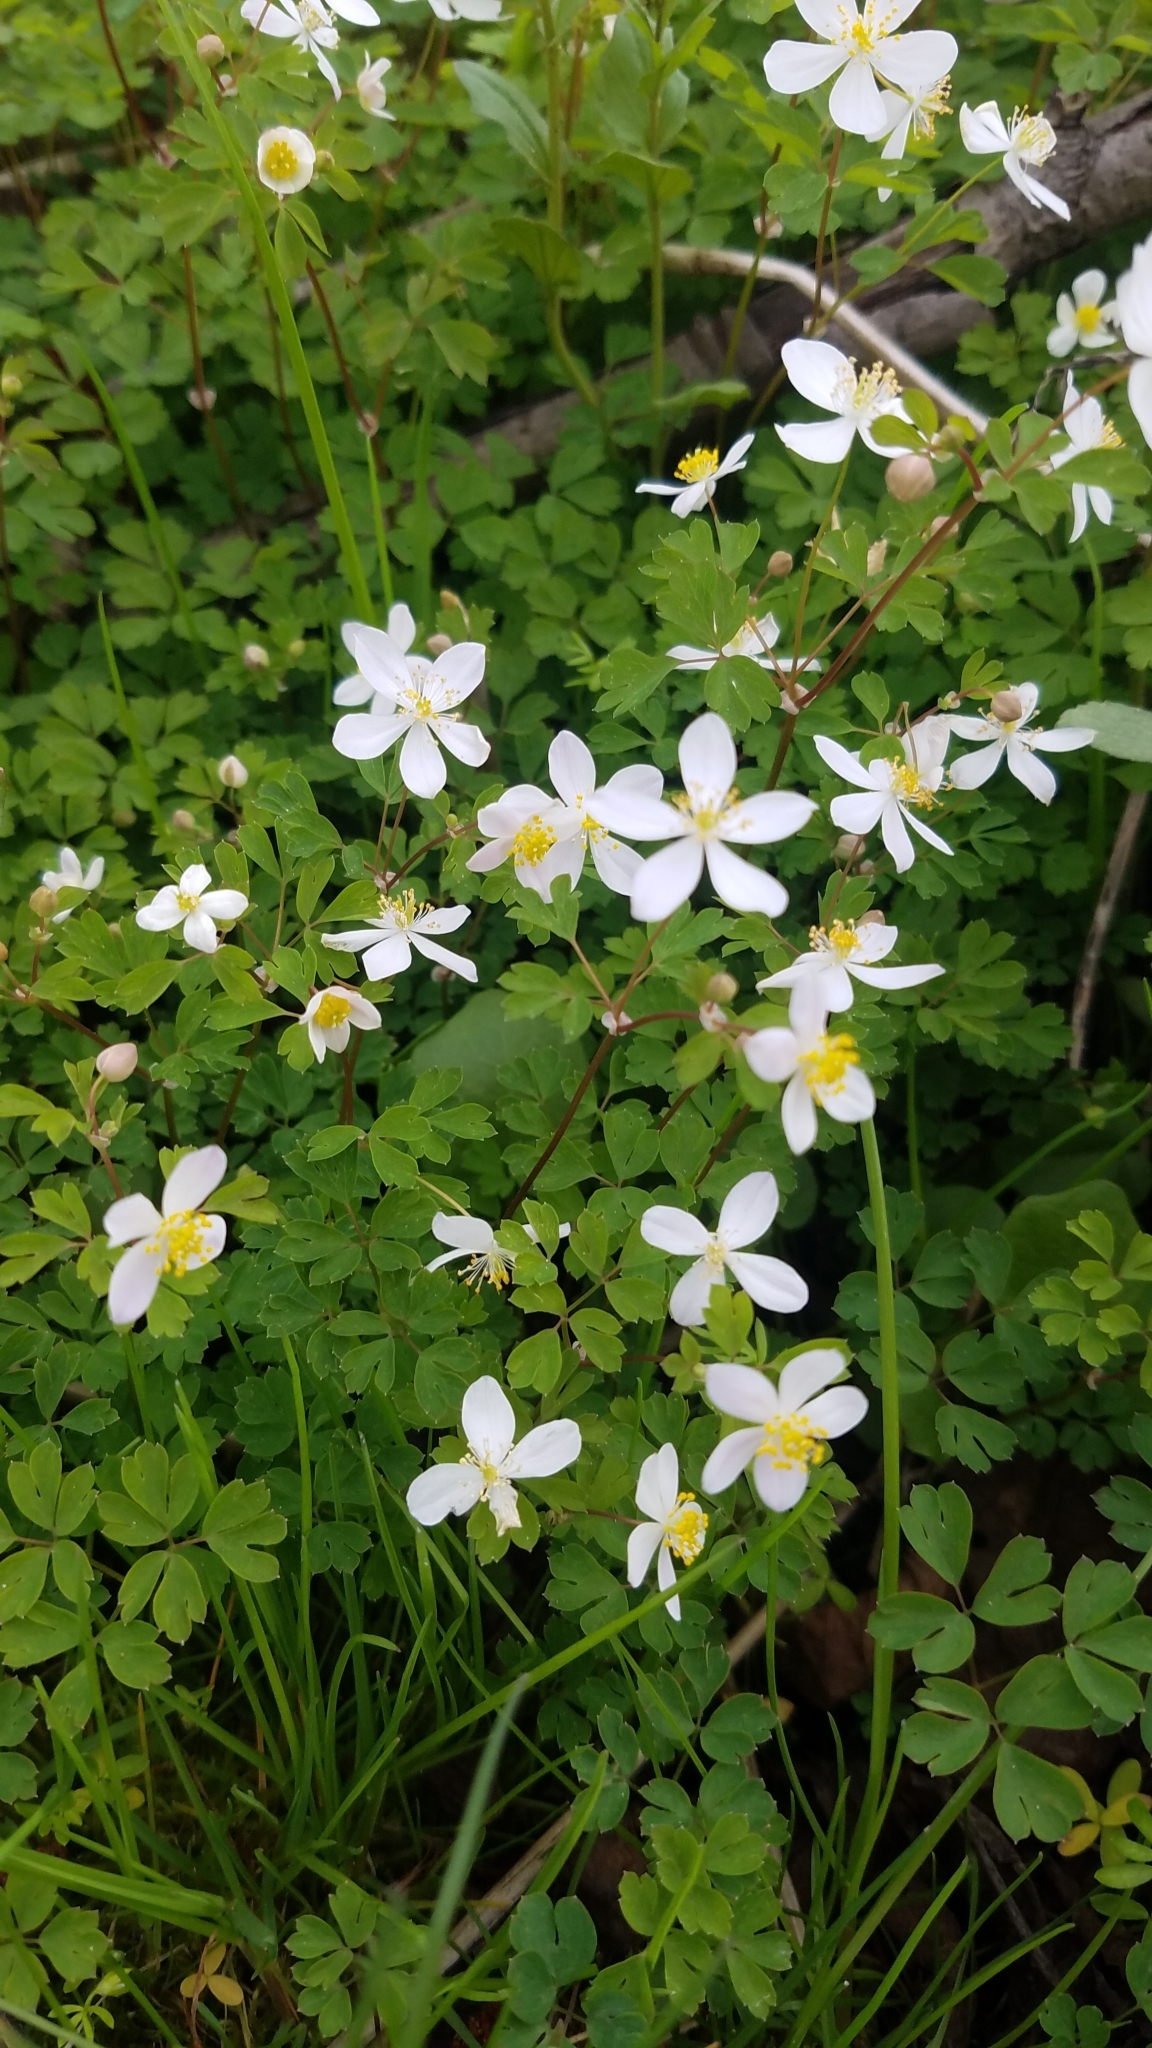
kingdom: Plantae
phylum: Tracheophyta
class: Magnoliopsida
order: Ranunculales
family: Ranunculaceae
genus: Enemion
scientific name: Enemion biternatum
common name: Eastern false rue-anemone
